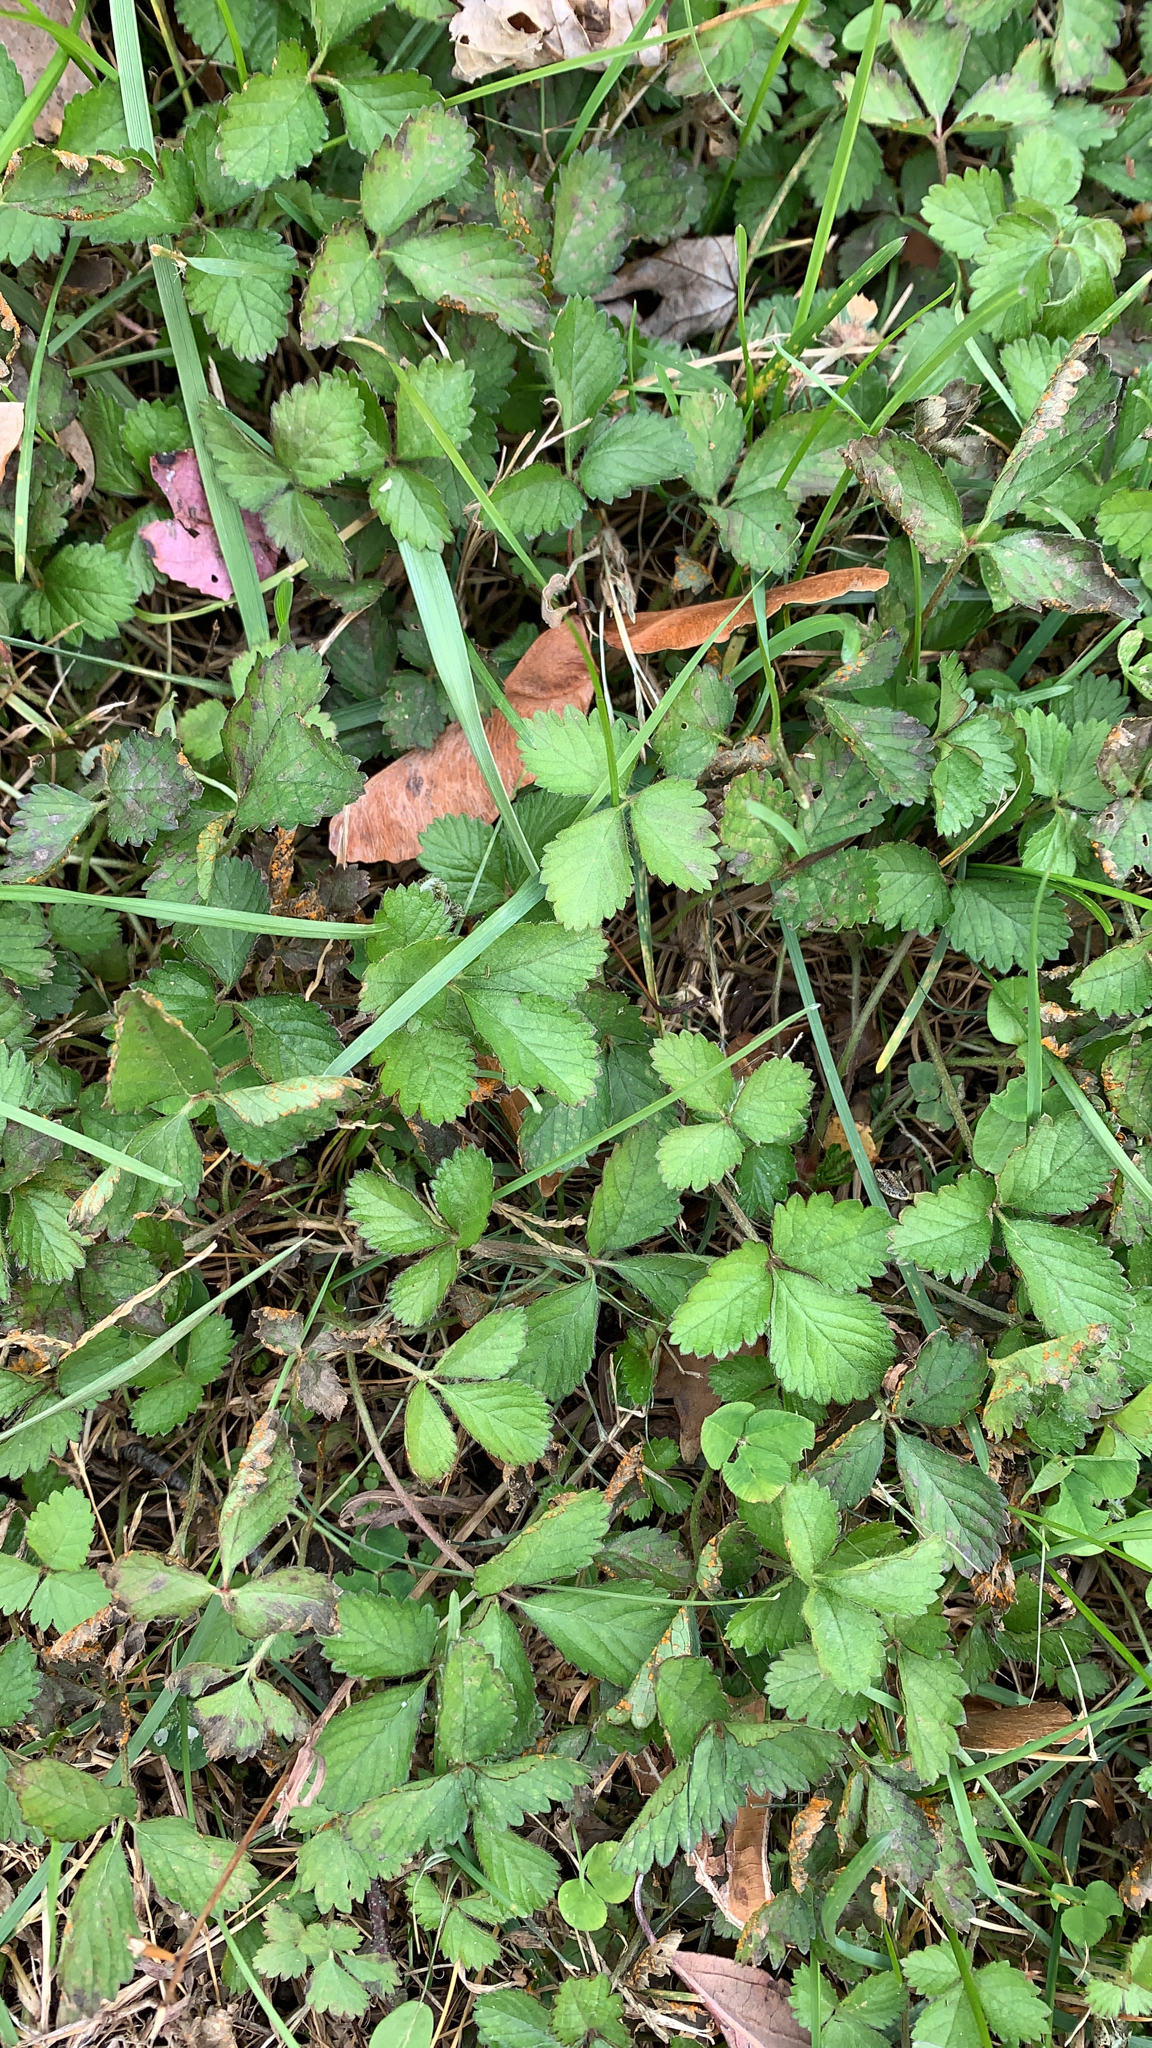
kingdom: Plantae
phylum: Tracheophyta
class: Magnoliopsida
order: Rosales
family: Rosaceae
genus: Potentilla
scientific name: Potentilla indica
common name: Yellow-flowered strawberry
